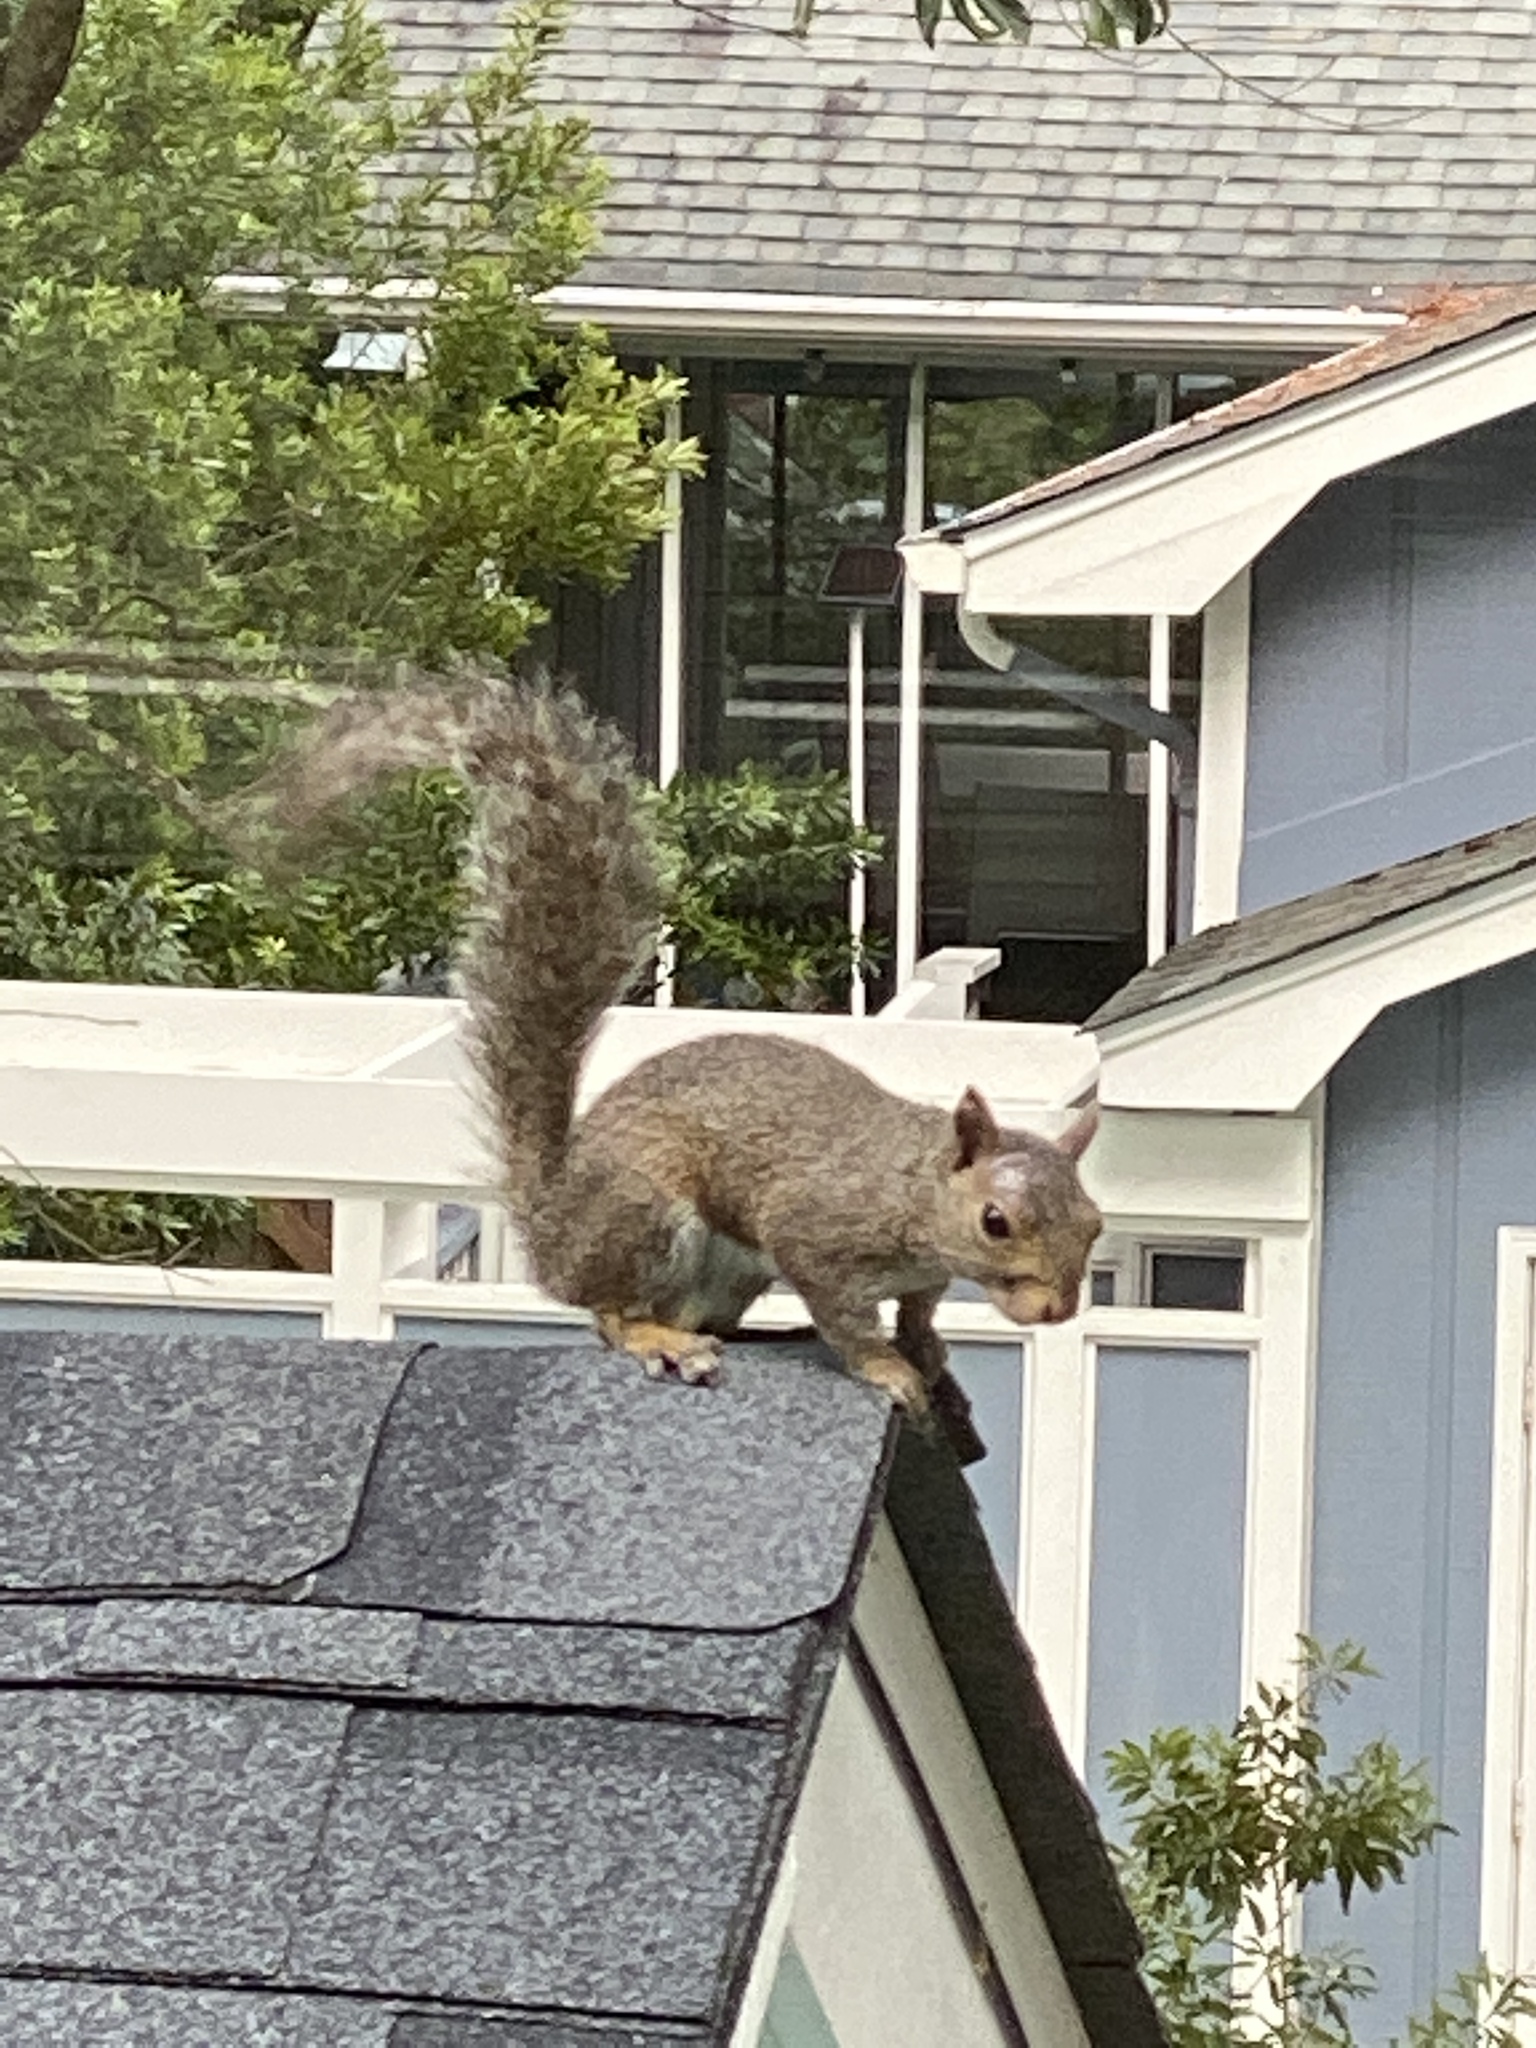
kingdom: Animalia
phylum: Chordata
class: Mammalia
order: Rodentia
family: Sciuridae
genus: Sciurus
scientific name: Sciurus carolinensis
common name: Eastern gray squirrel
